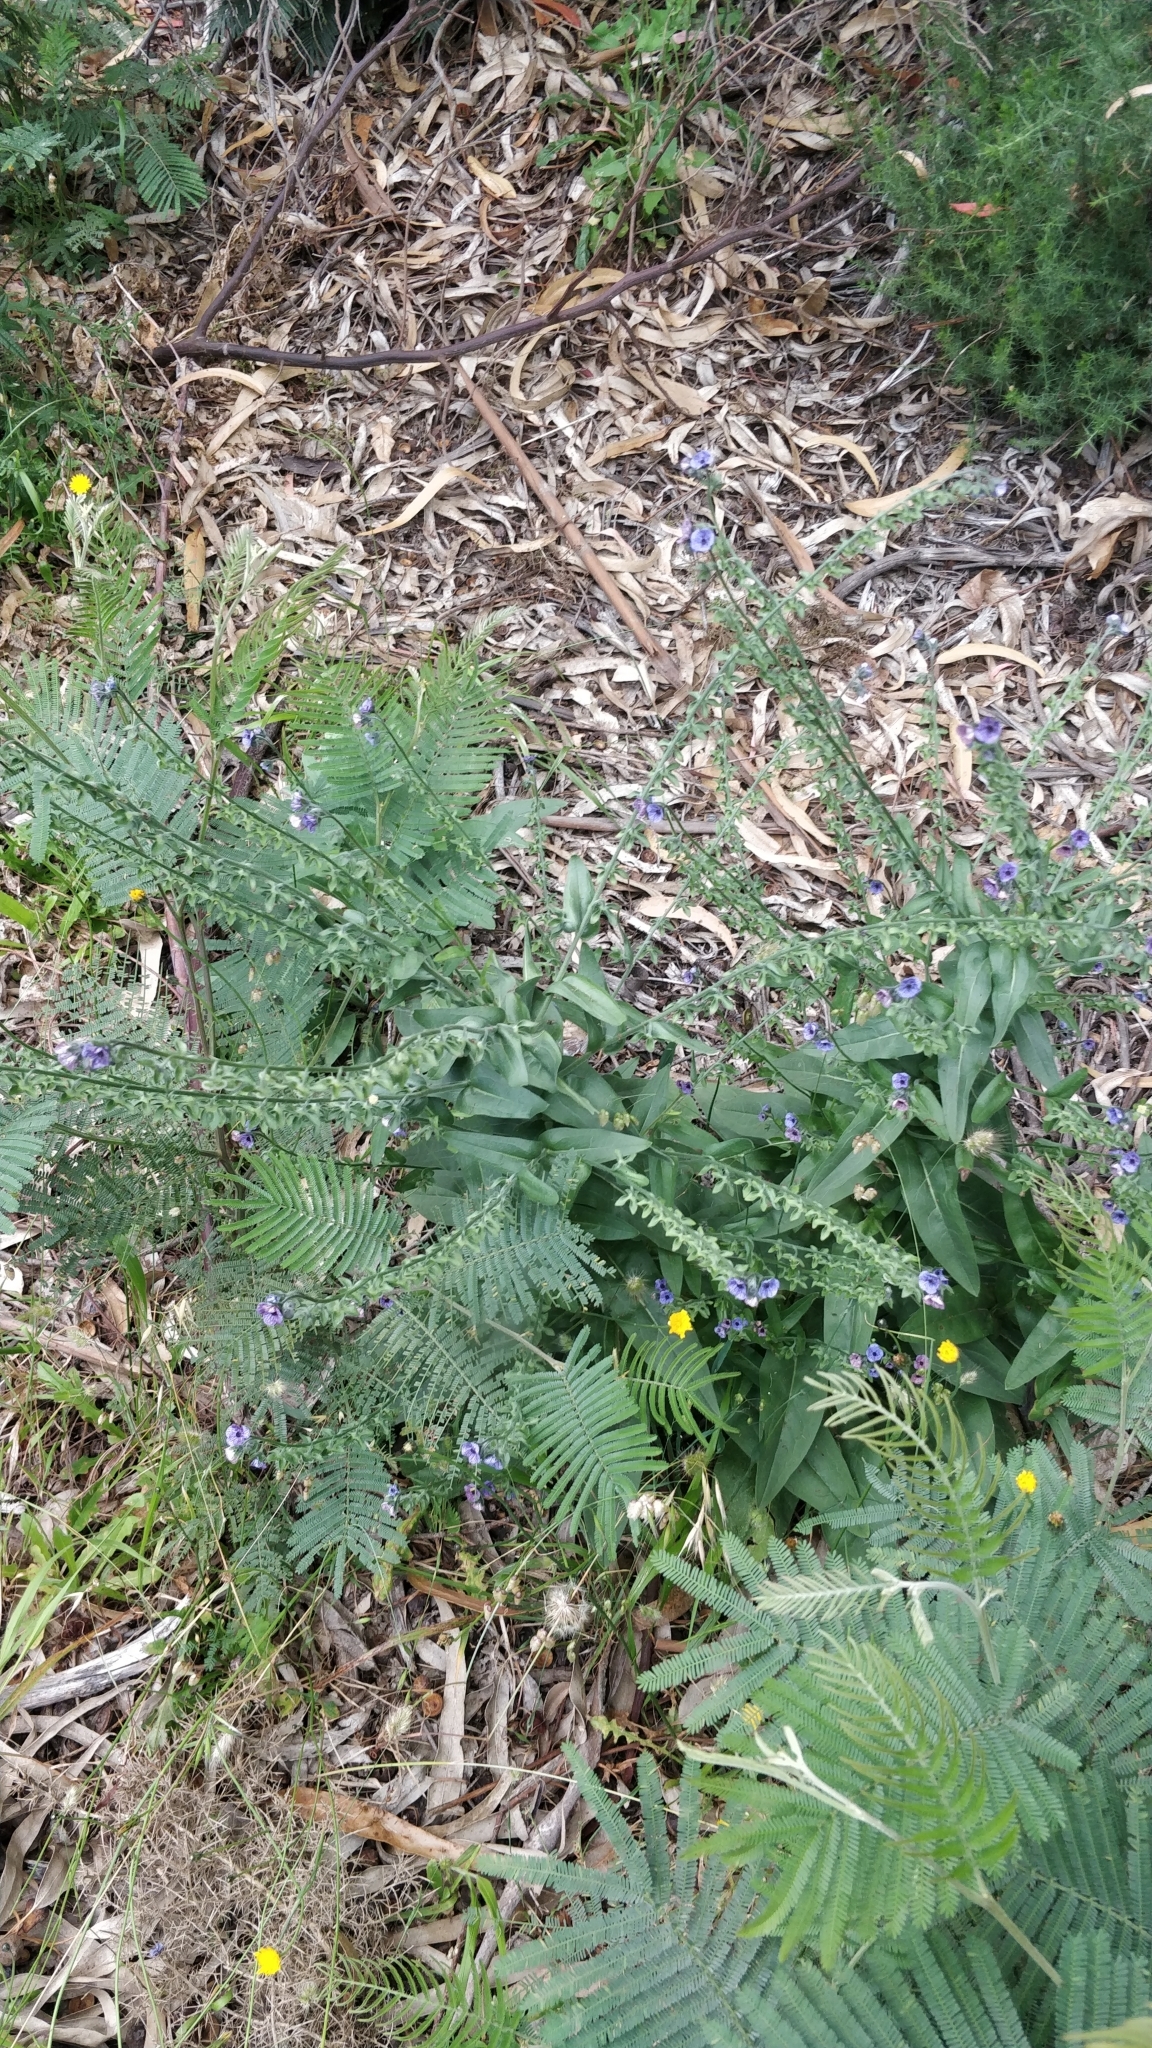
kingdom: Plantae
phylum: Tracheophyta
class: Magnoliopsida
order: Boraginales
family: Boraginaceae
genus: Cynoglossum
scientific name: Cynoglossum creticum
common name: Blue hound's tongue
